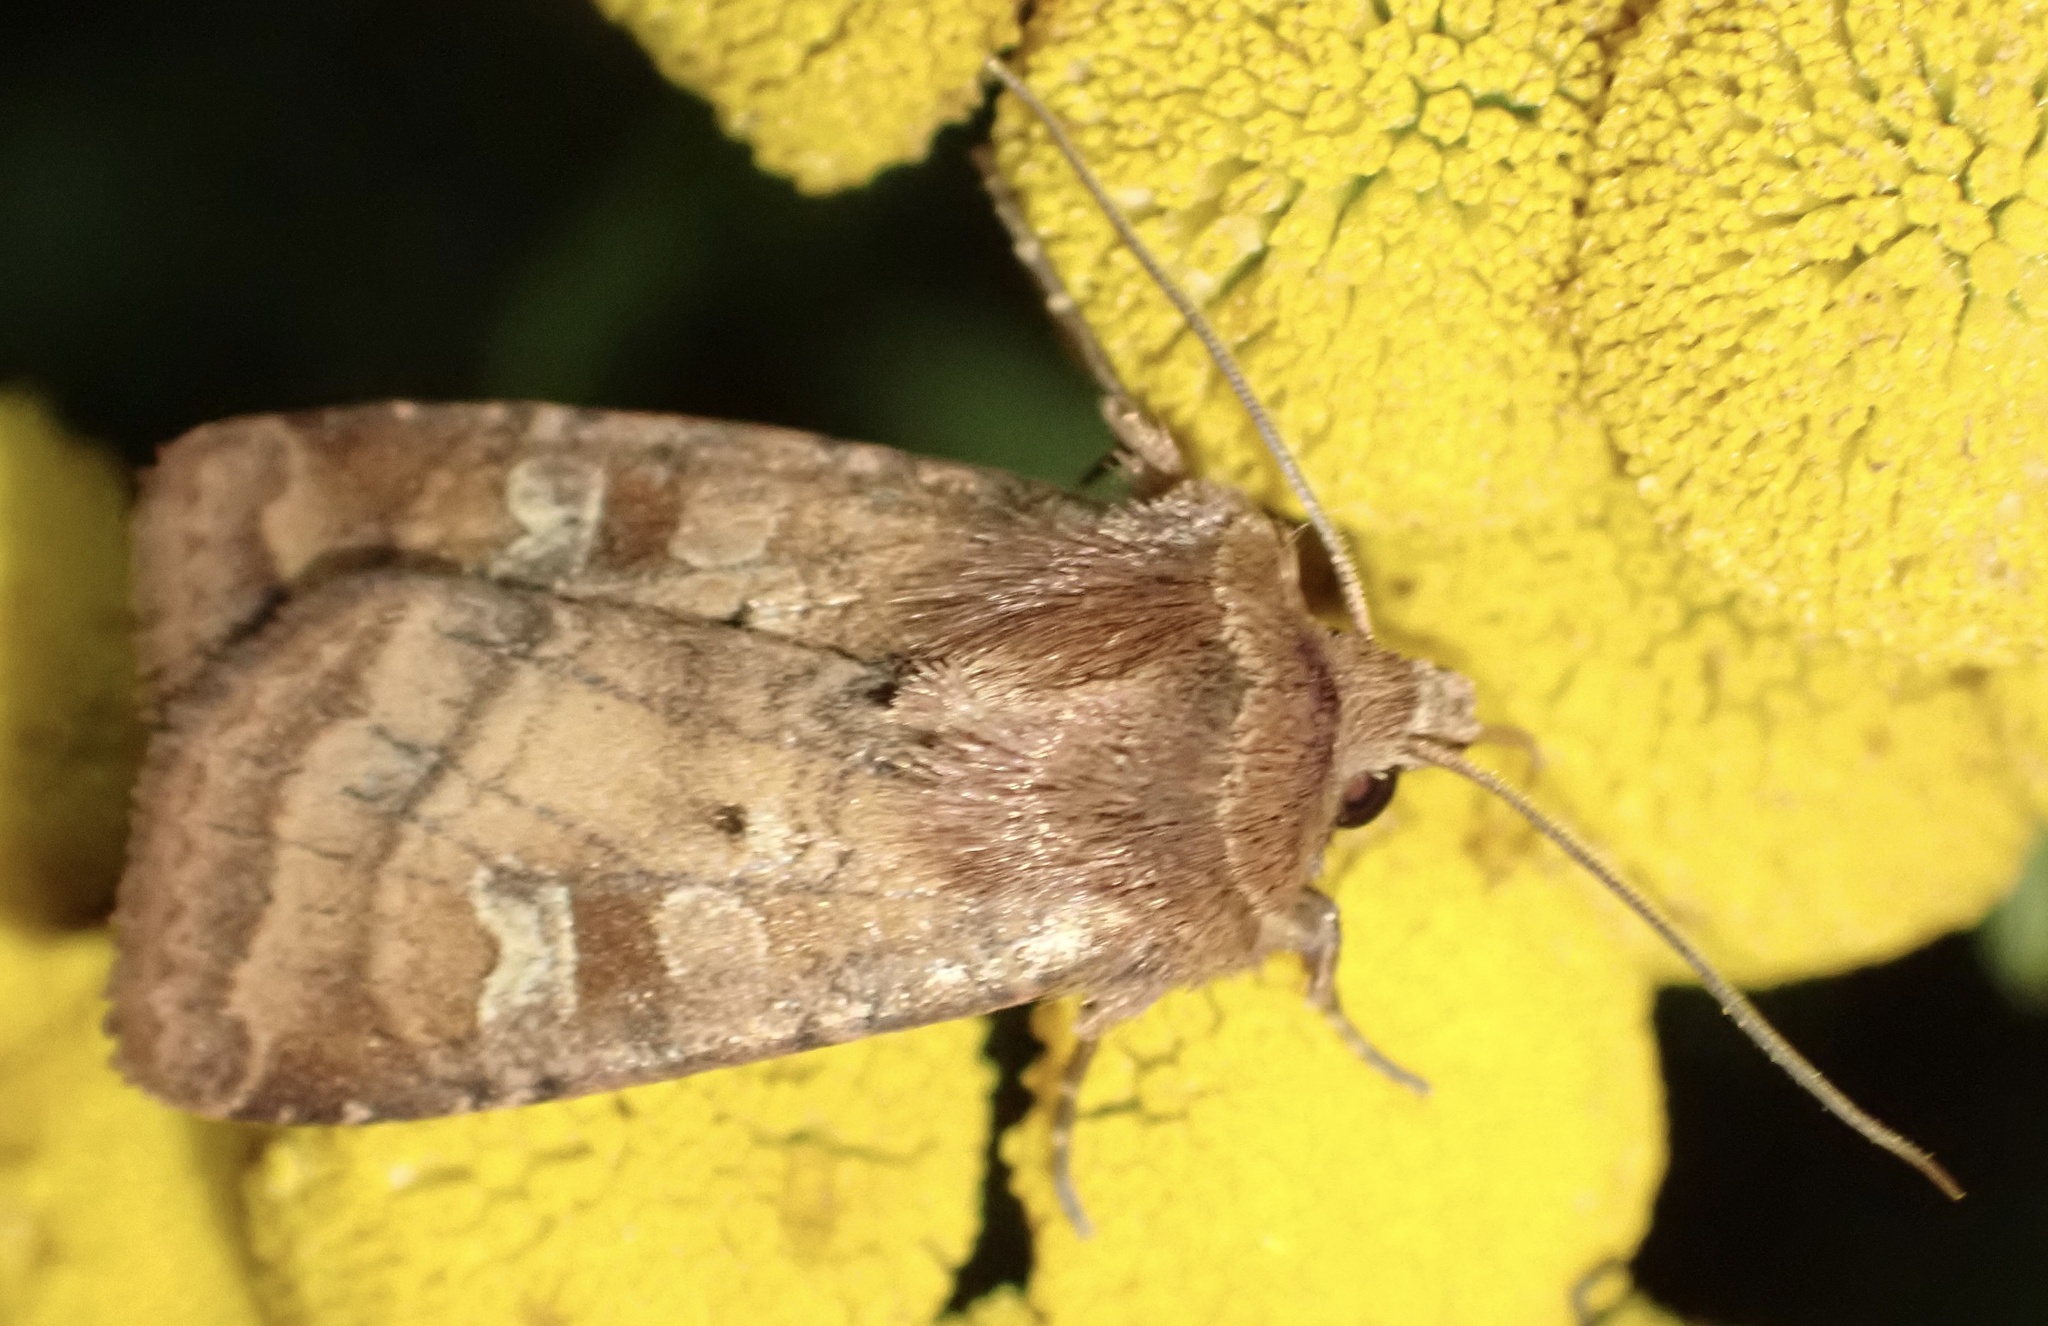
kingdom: Animalia
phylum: Arthropoda
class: Insecta
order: Lepidoptera
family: Noctuidae
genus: Diarsia
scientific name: Diarsia rubi
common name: Small square-spot
